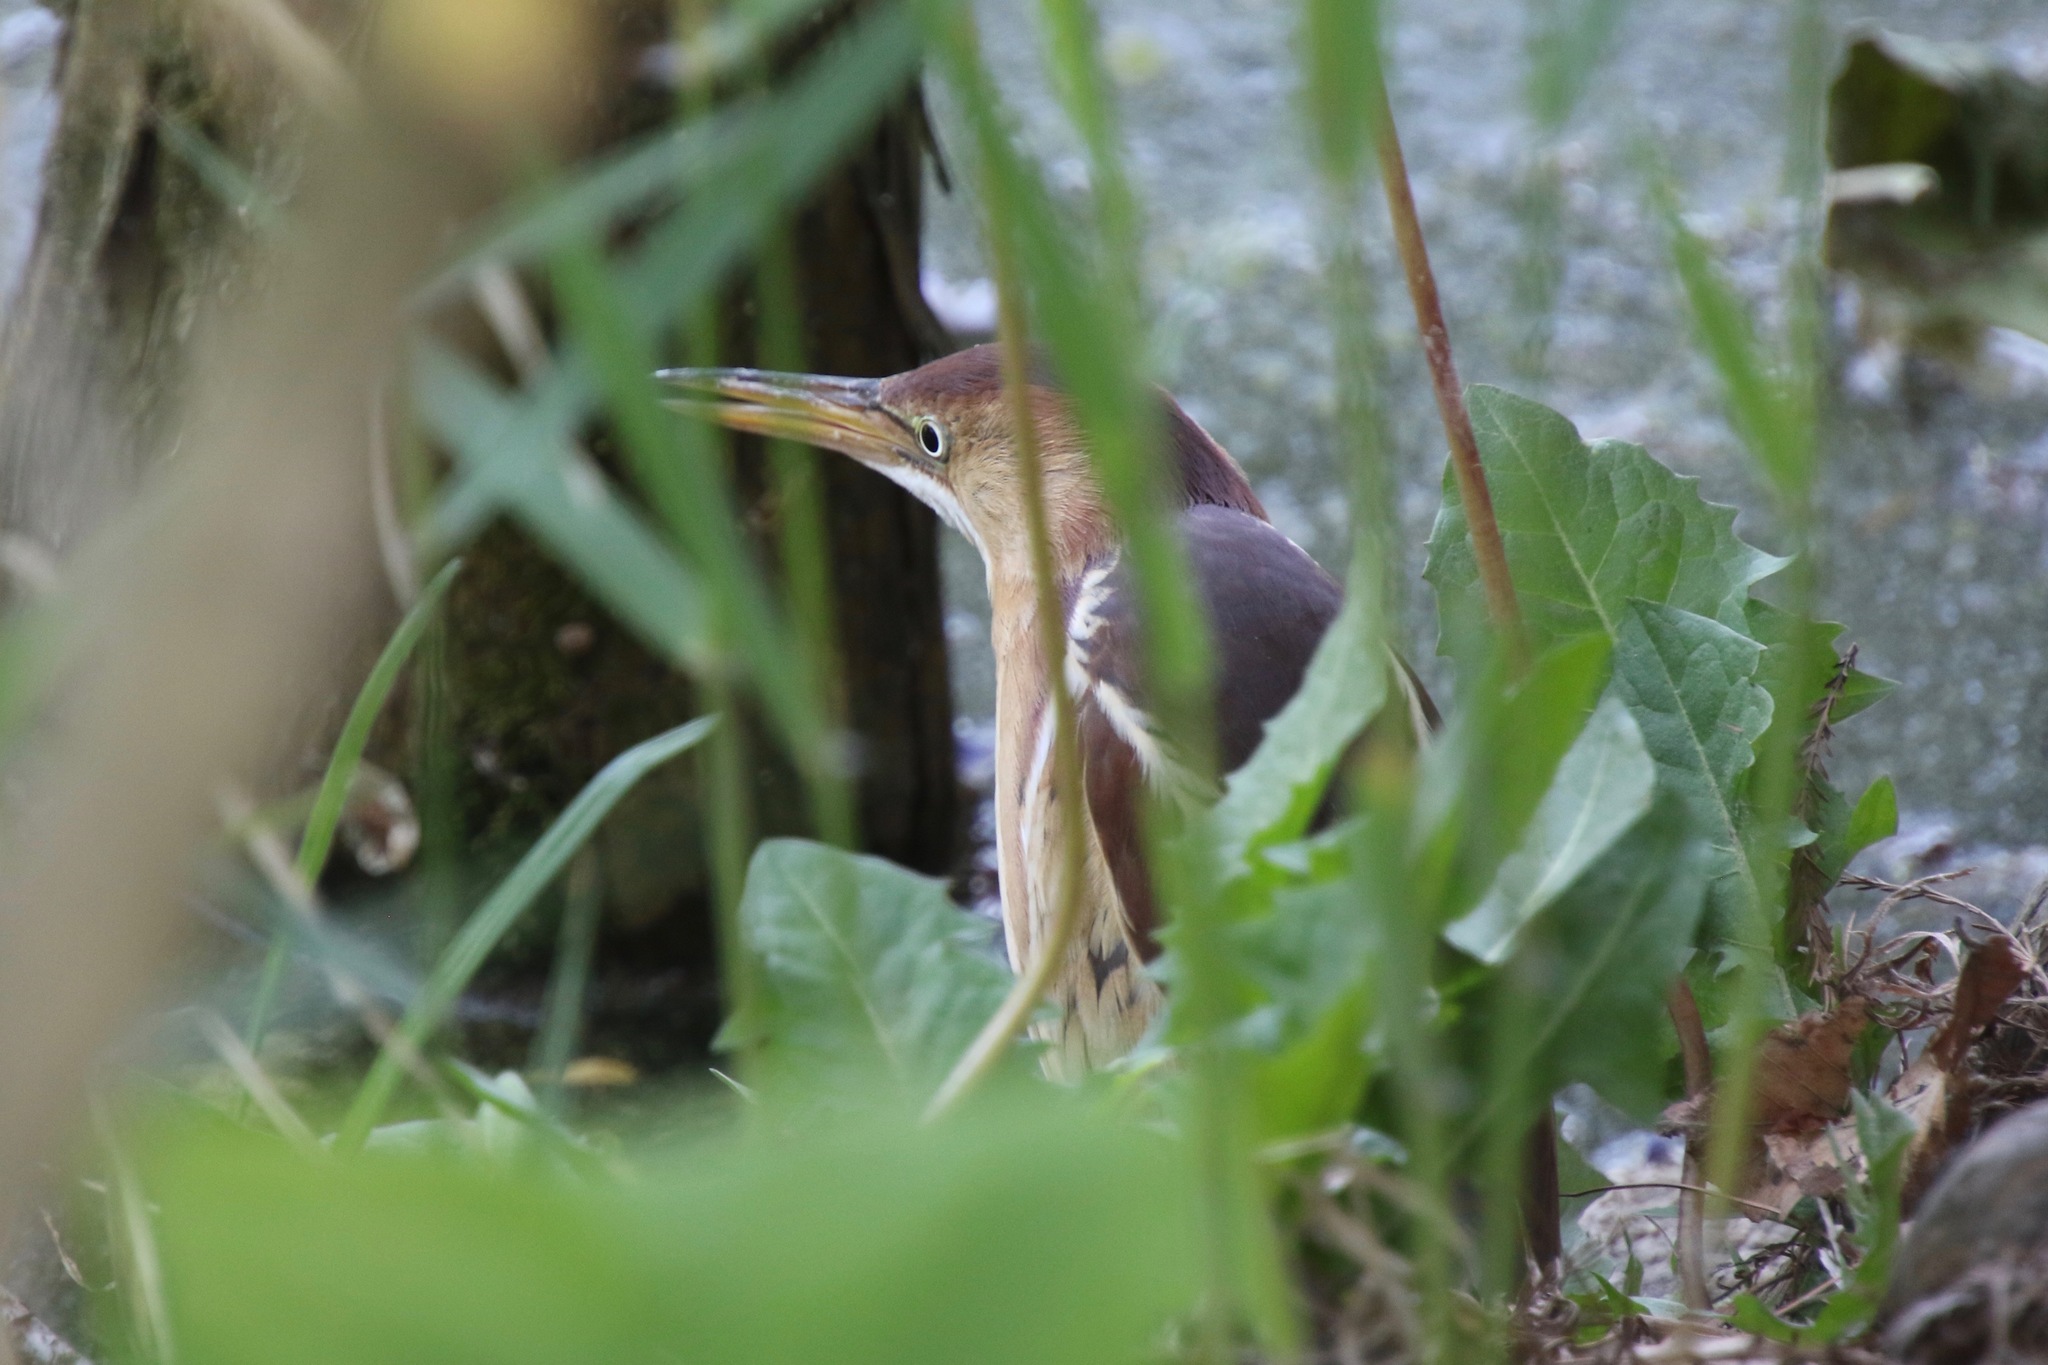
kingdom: Animalia
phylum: Chordata
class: Aves
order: Pelecaniformes
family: Ardeidae
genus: Ixobrychus
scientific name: Ixobrychus exilis
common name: Least bittern
